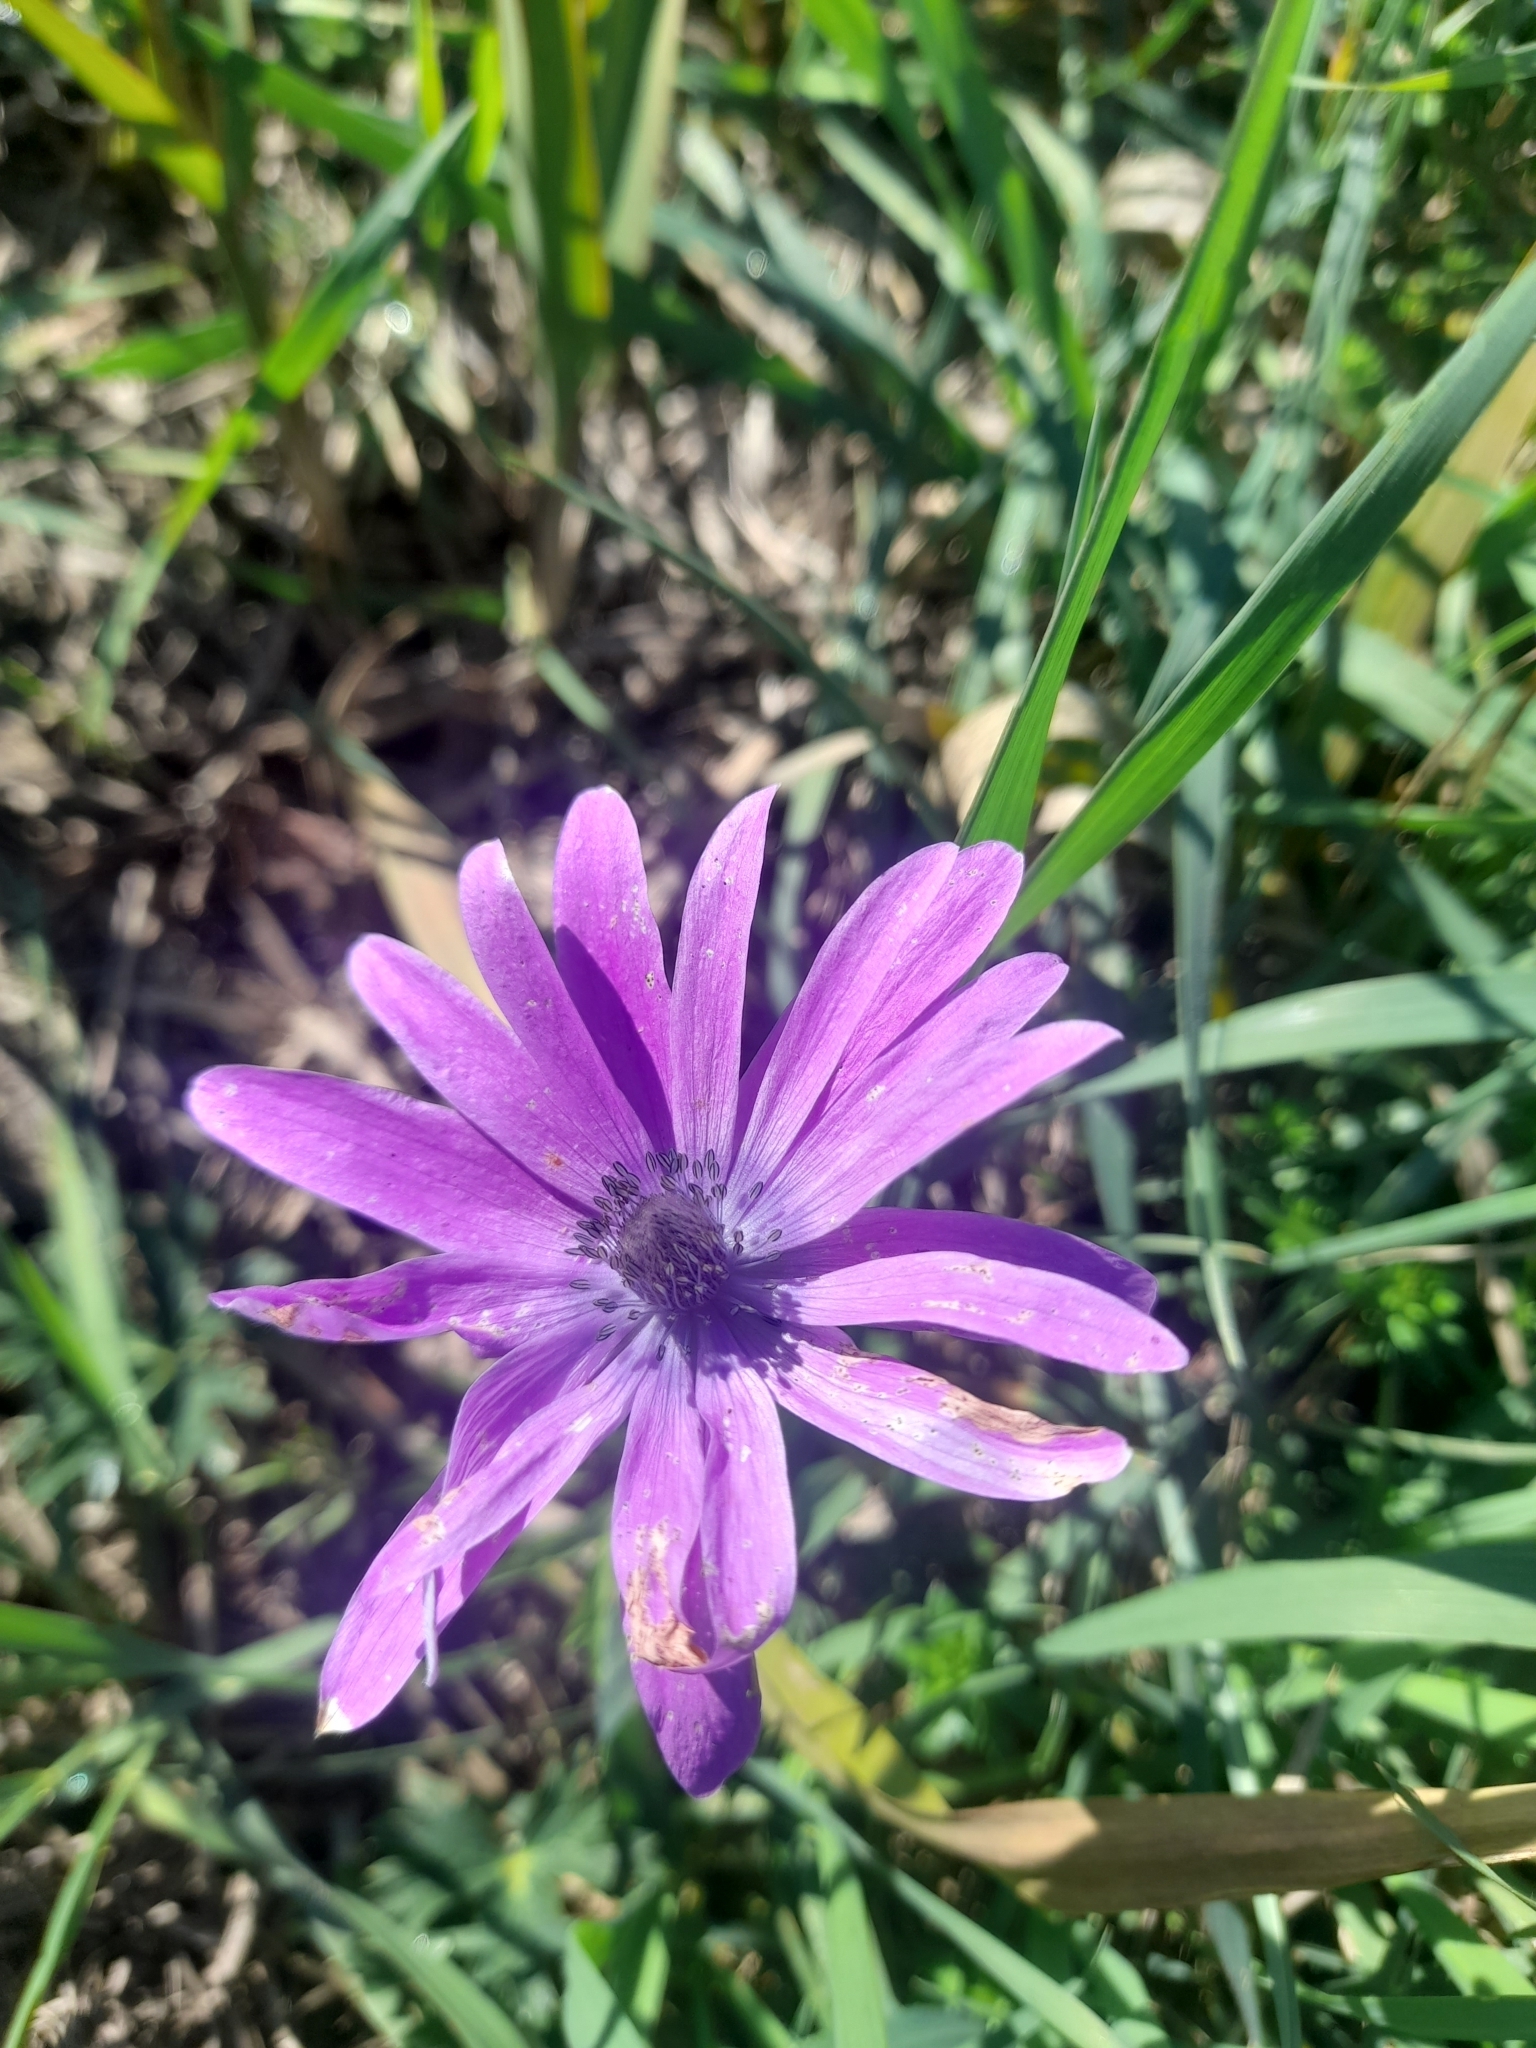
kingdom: Plantae
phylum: Tracheophyta
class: Magnoliopsida
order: Ranunculales
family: Ranunculaceae
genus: Anemone
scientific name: Anemone hortensis
